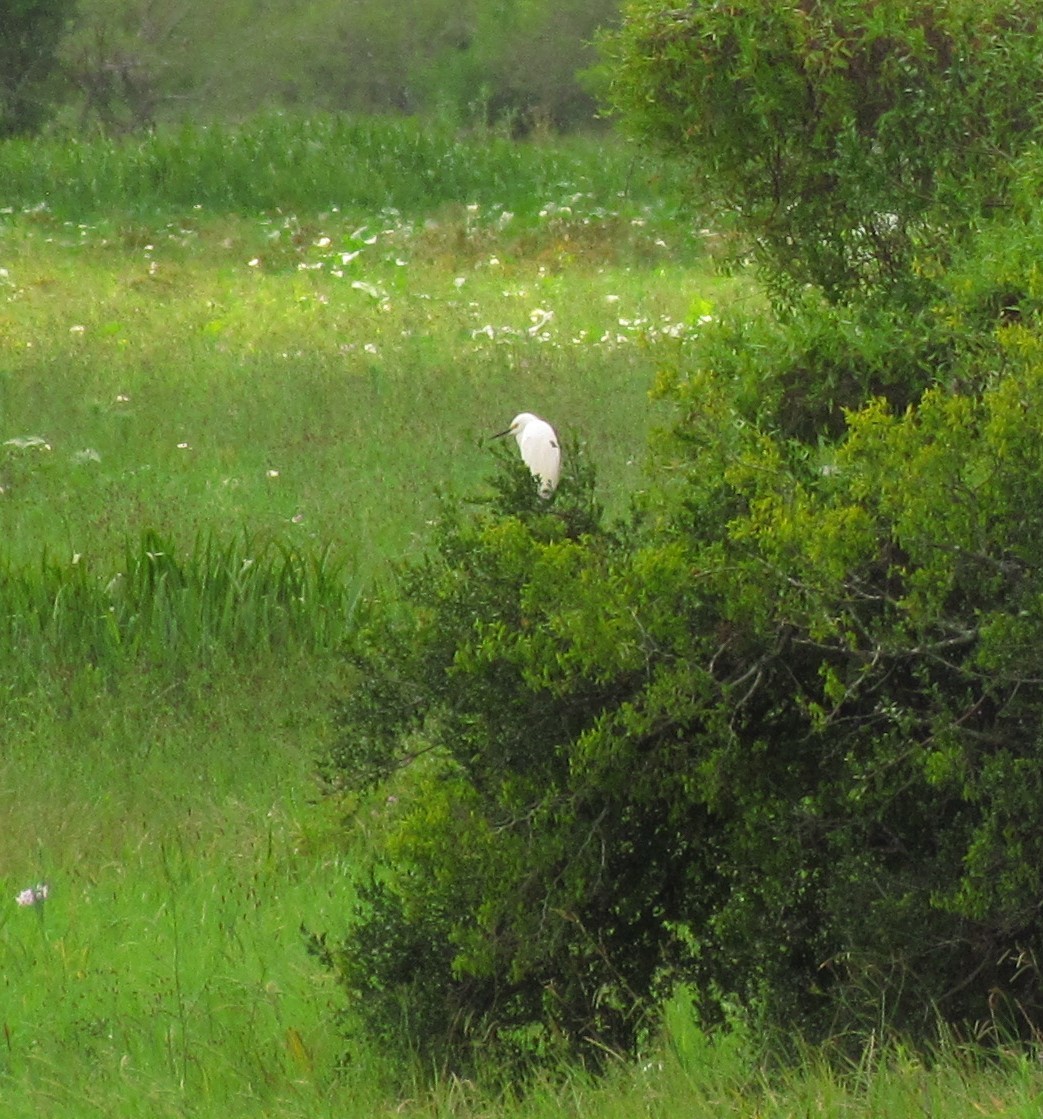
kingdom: Animalia
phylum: Chordata
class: Aves
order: Pelecaniformes
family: Ardeidae
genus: Egretta
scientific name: Egretta thula
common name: Snowy egret
